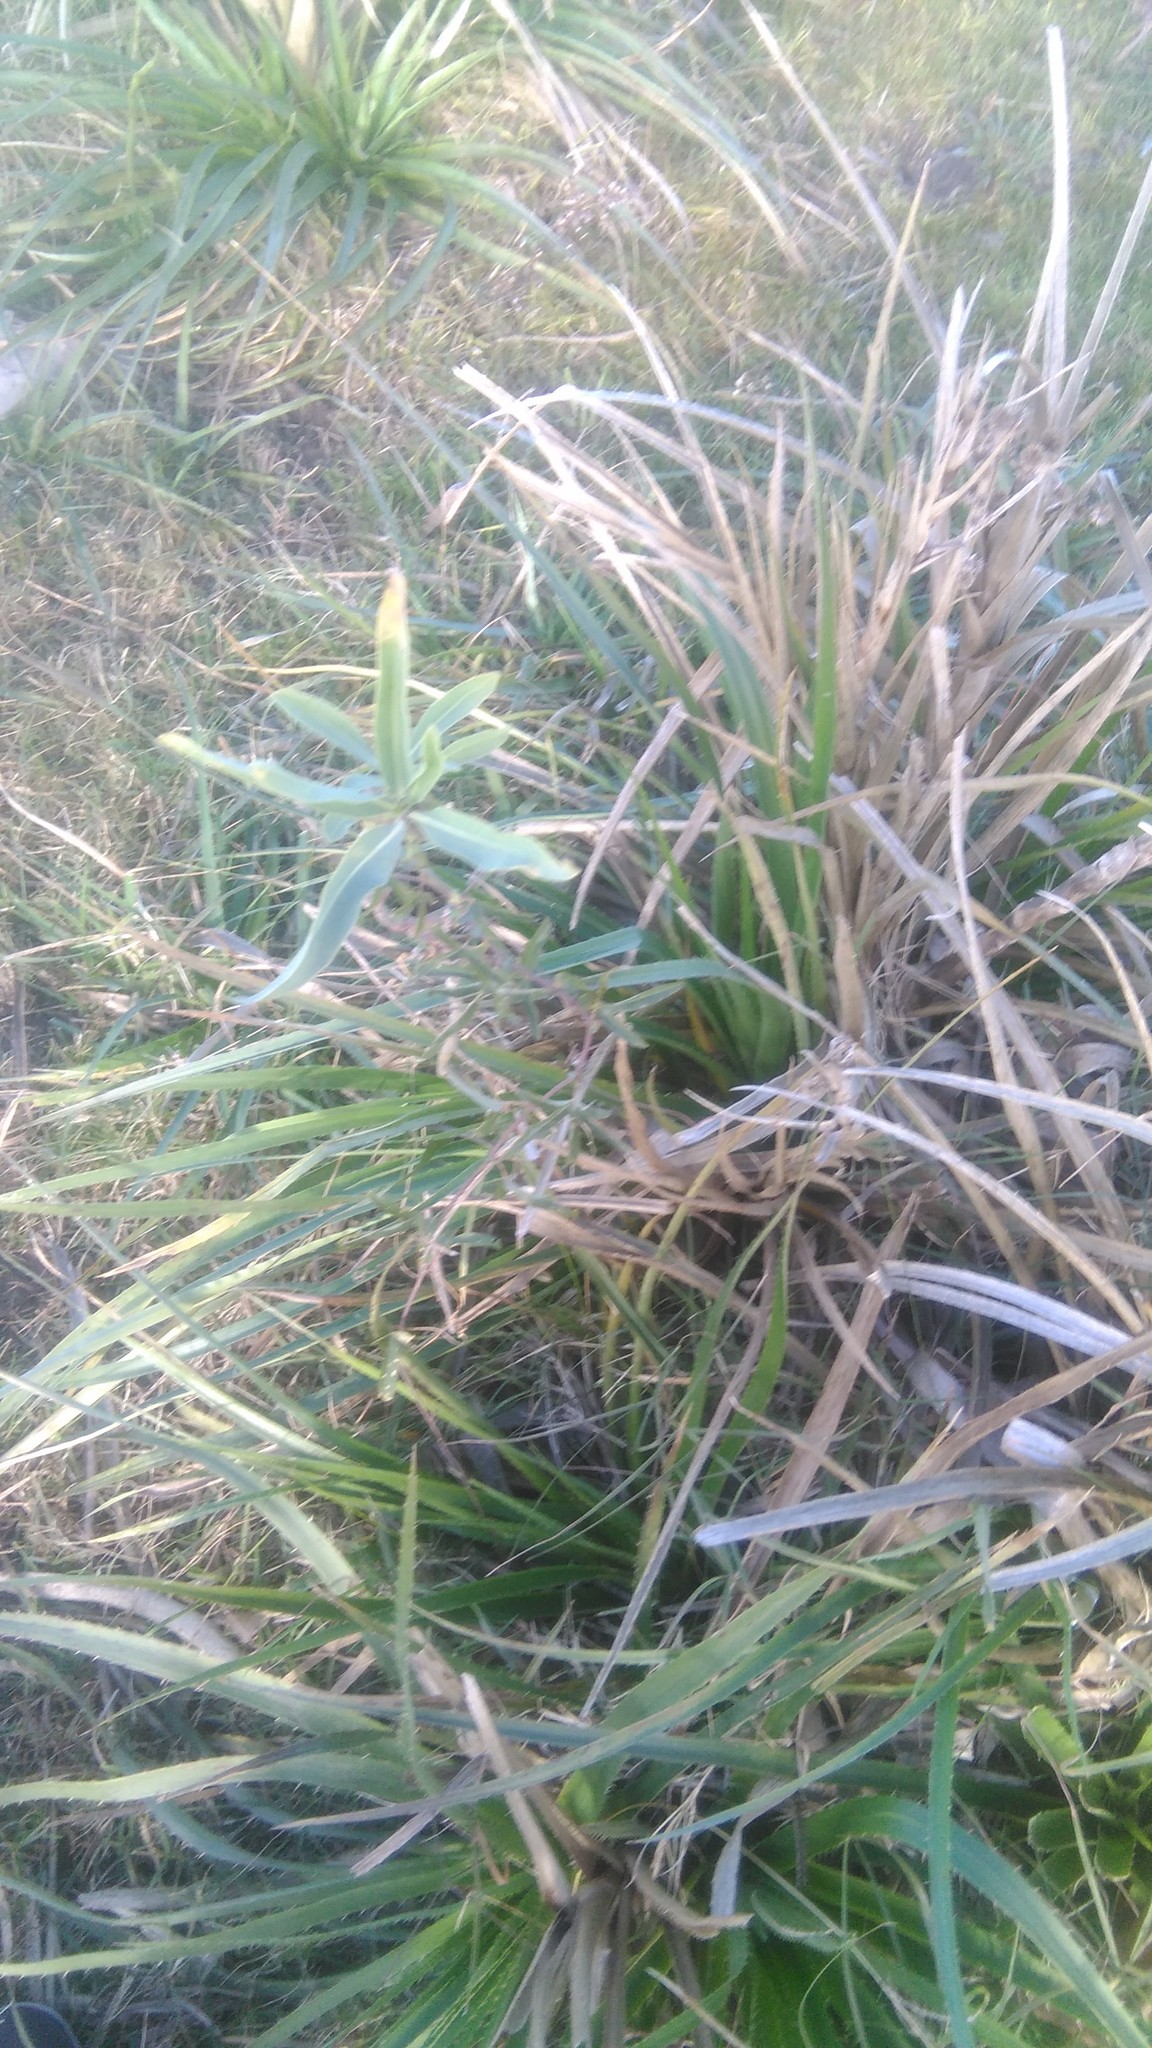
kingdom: Plantae
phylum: Tracheophyta
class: Magnoliopsida
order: Solanales
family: Solanaceae
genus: Solanum
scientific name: Solanum glaucophyllum
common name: Waxyleaf nightshade
